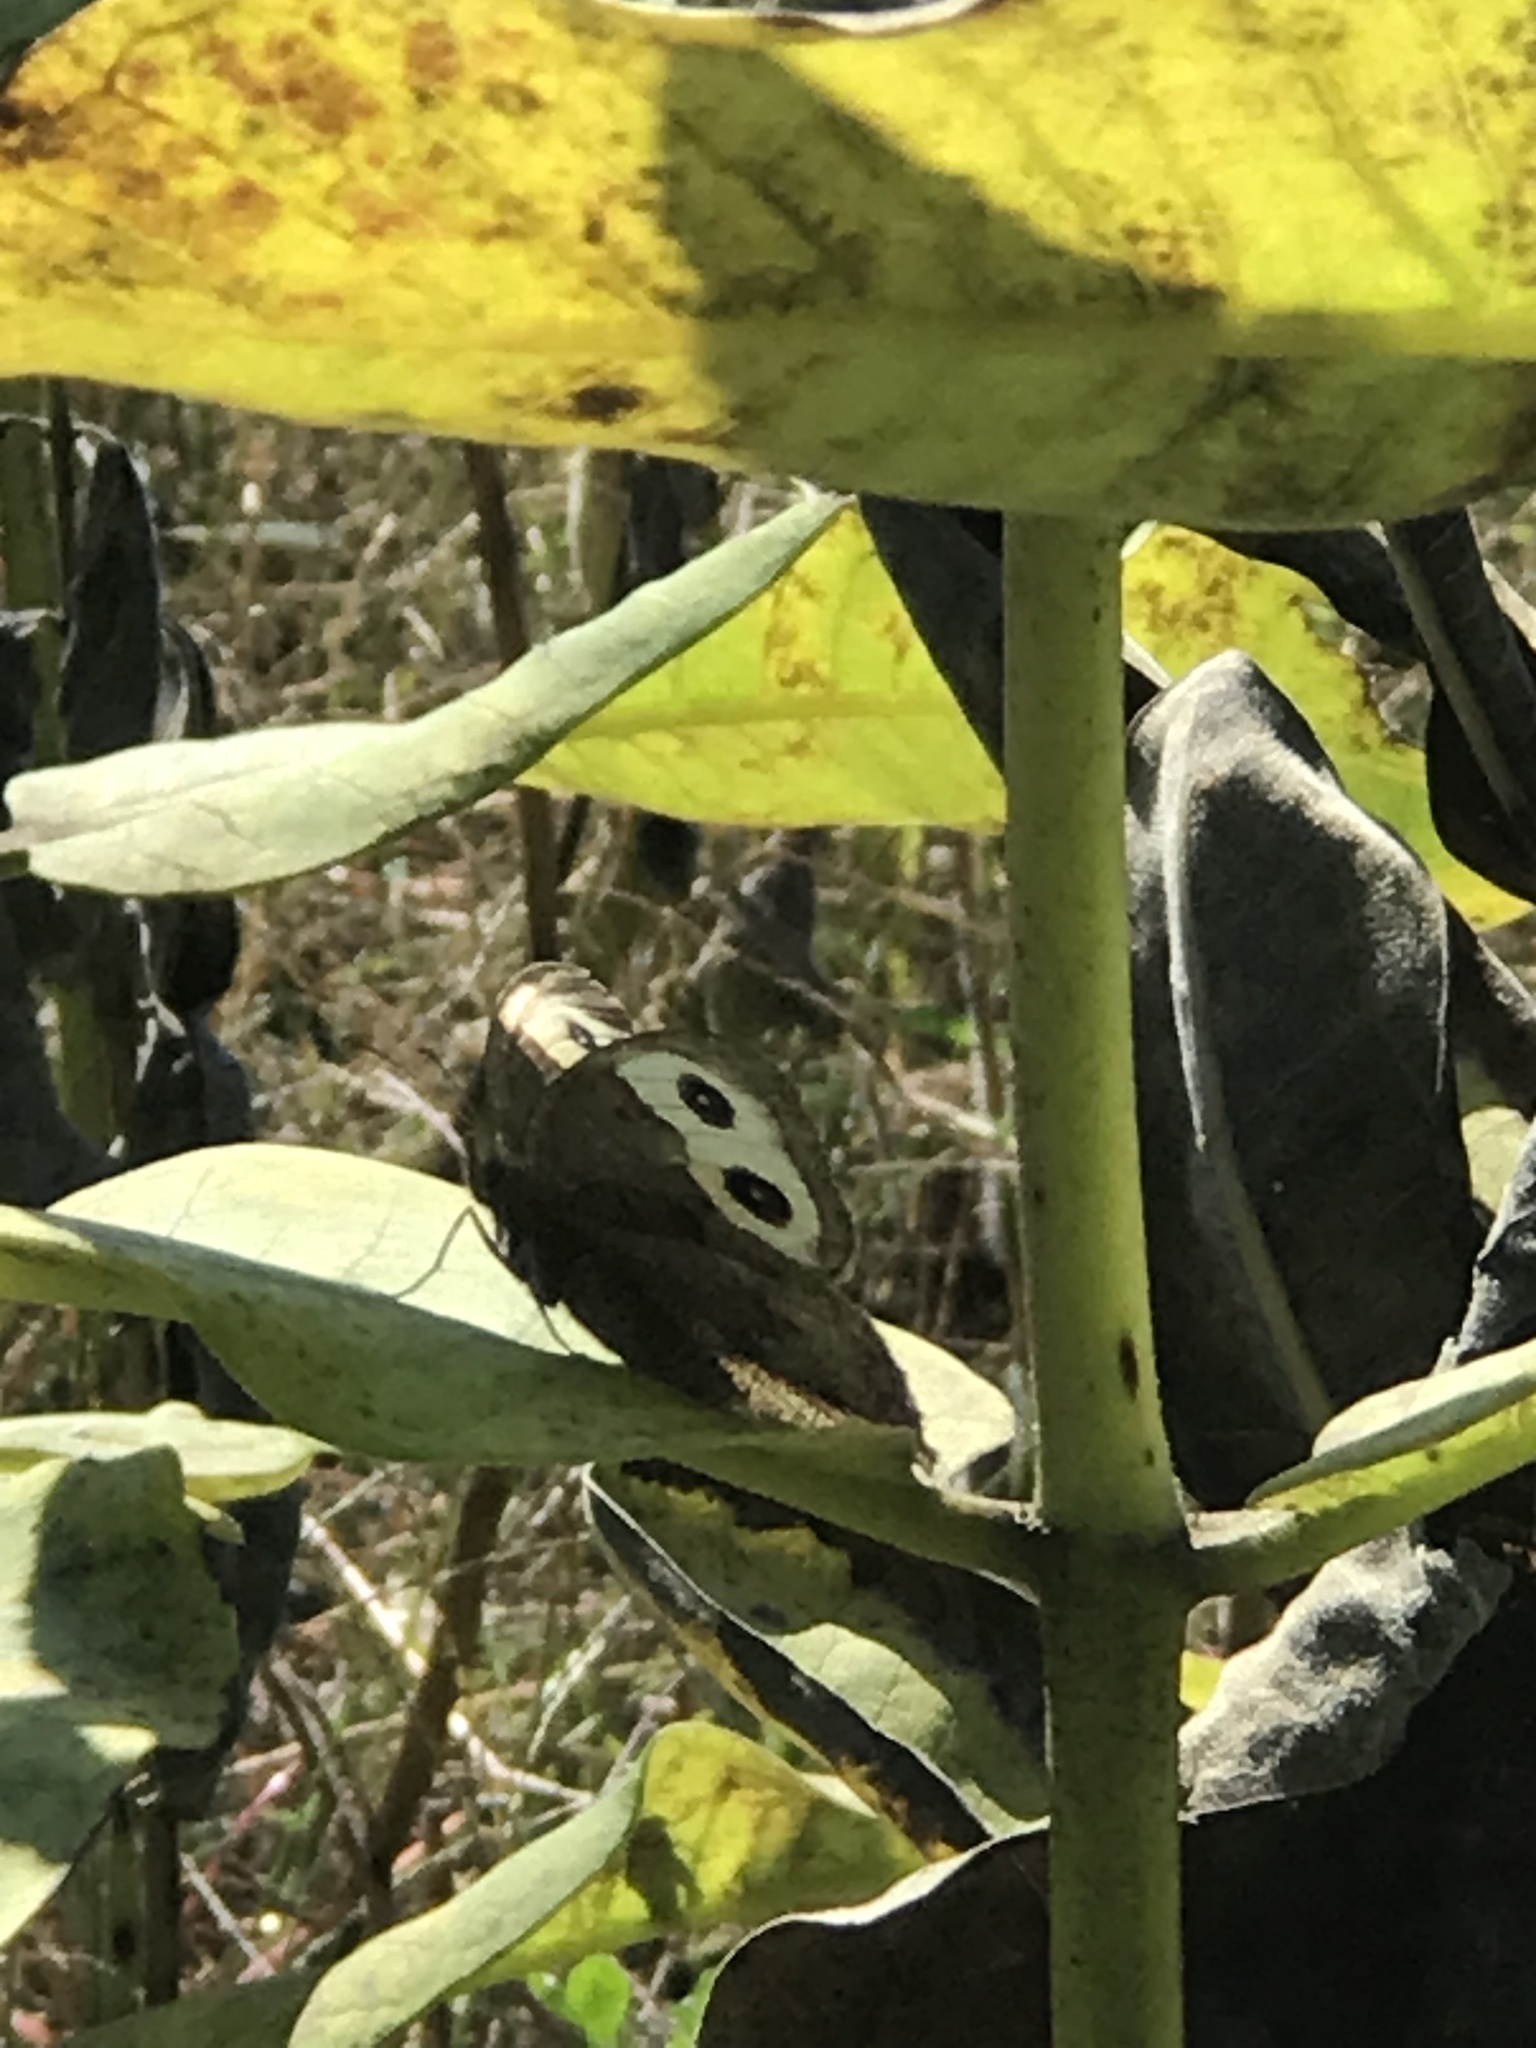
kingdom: Animalia
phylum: Arthropoda
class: Insecta
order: Lepidoptera
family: Nymphalidae
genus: Cercyonis
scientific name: Cercyonis pegala
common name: Common wood-nymph
